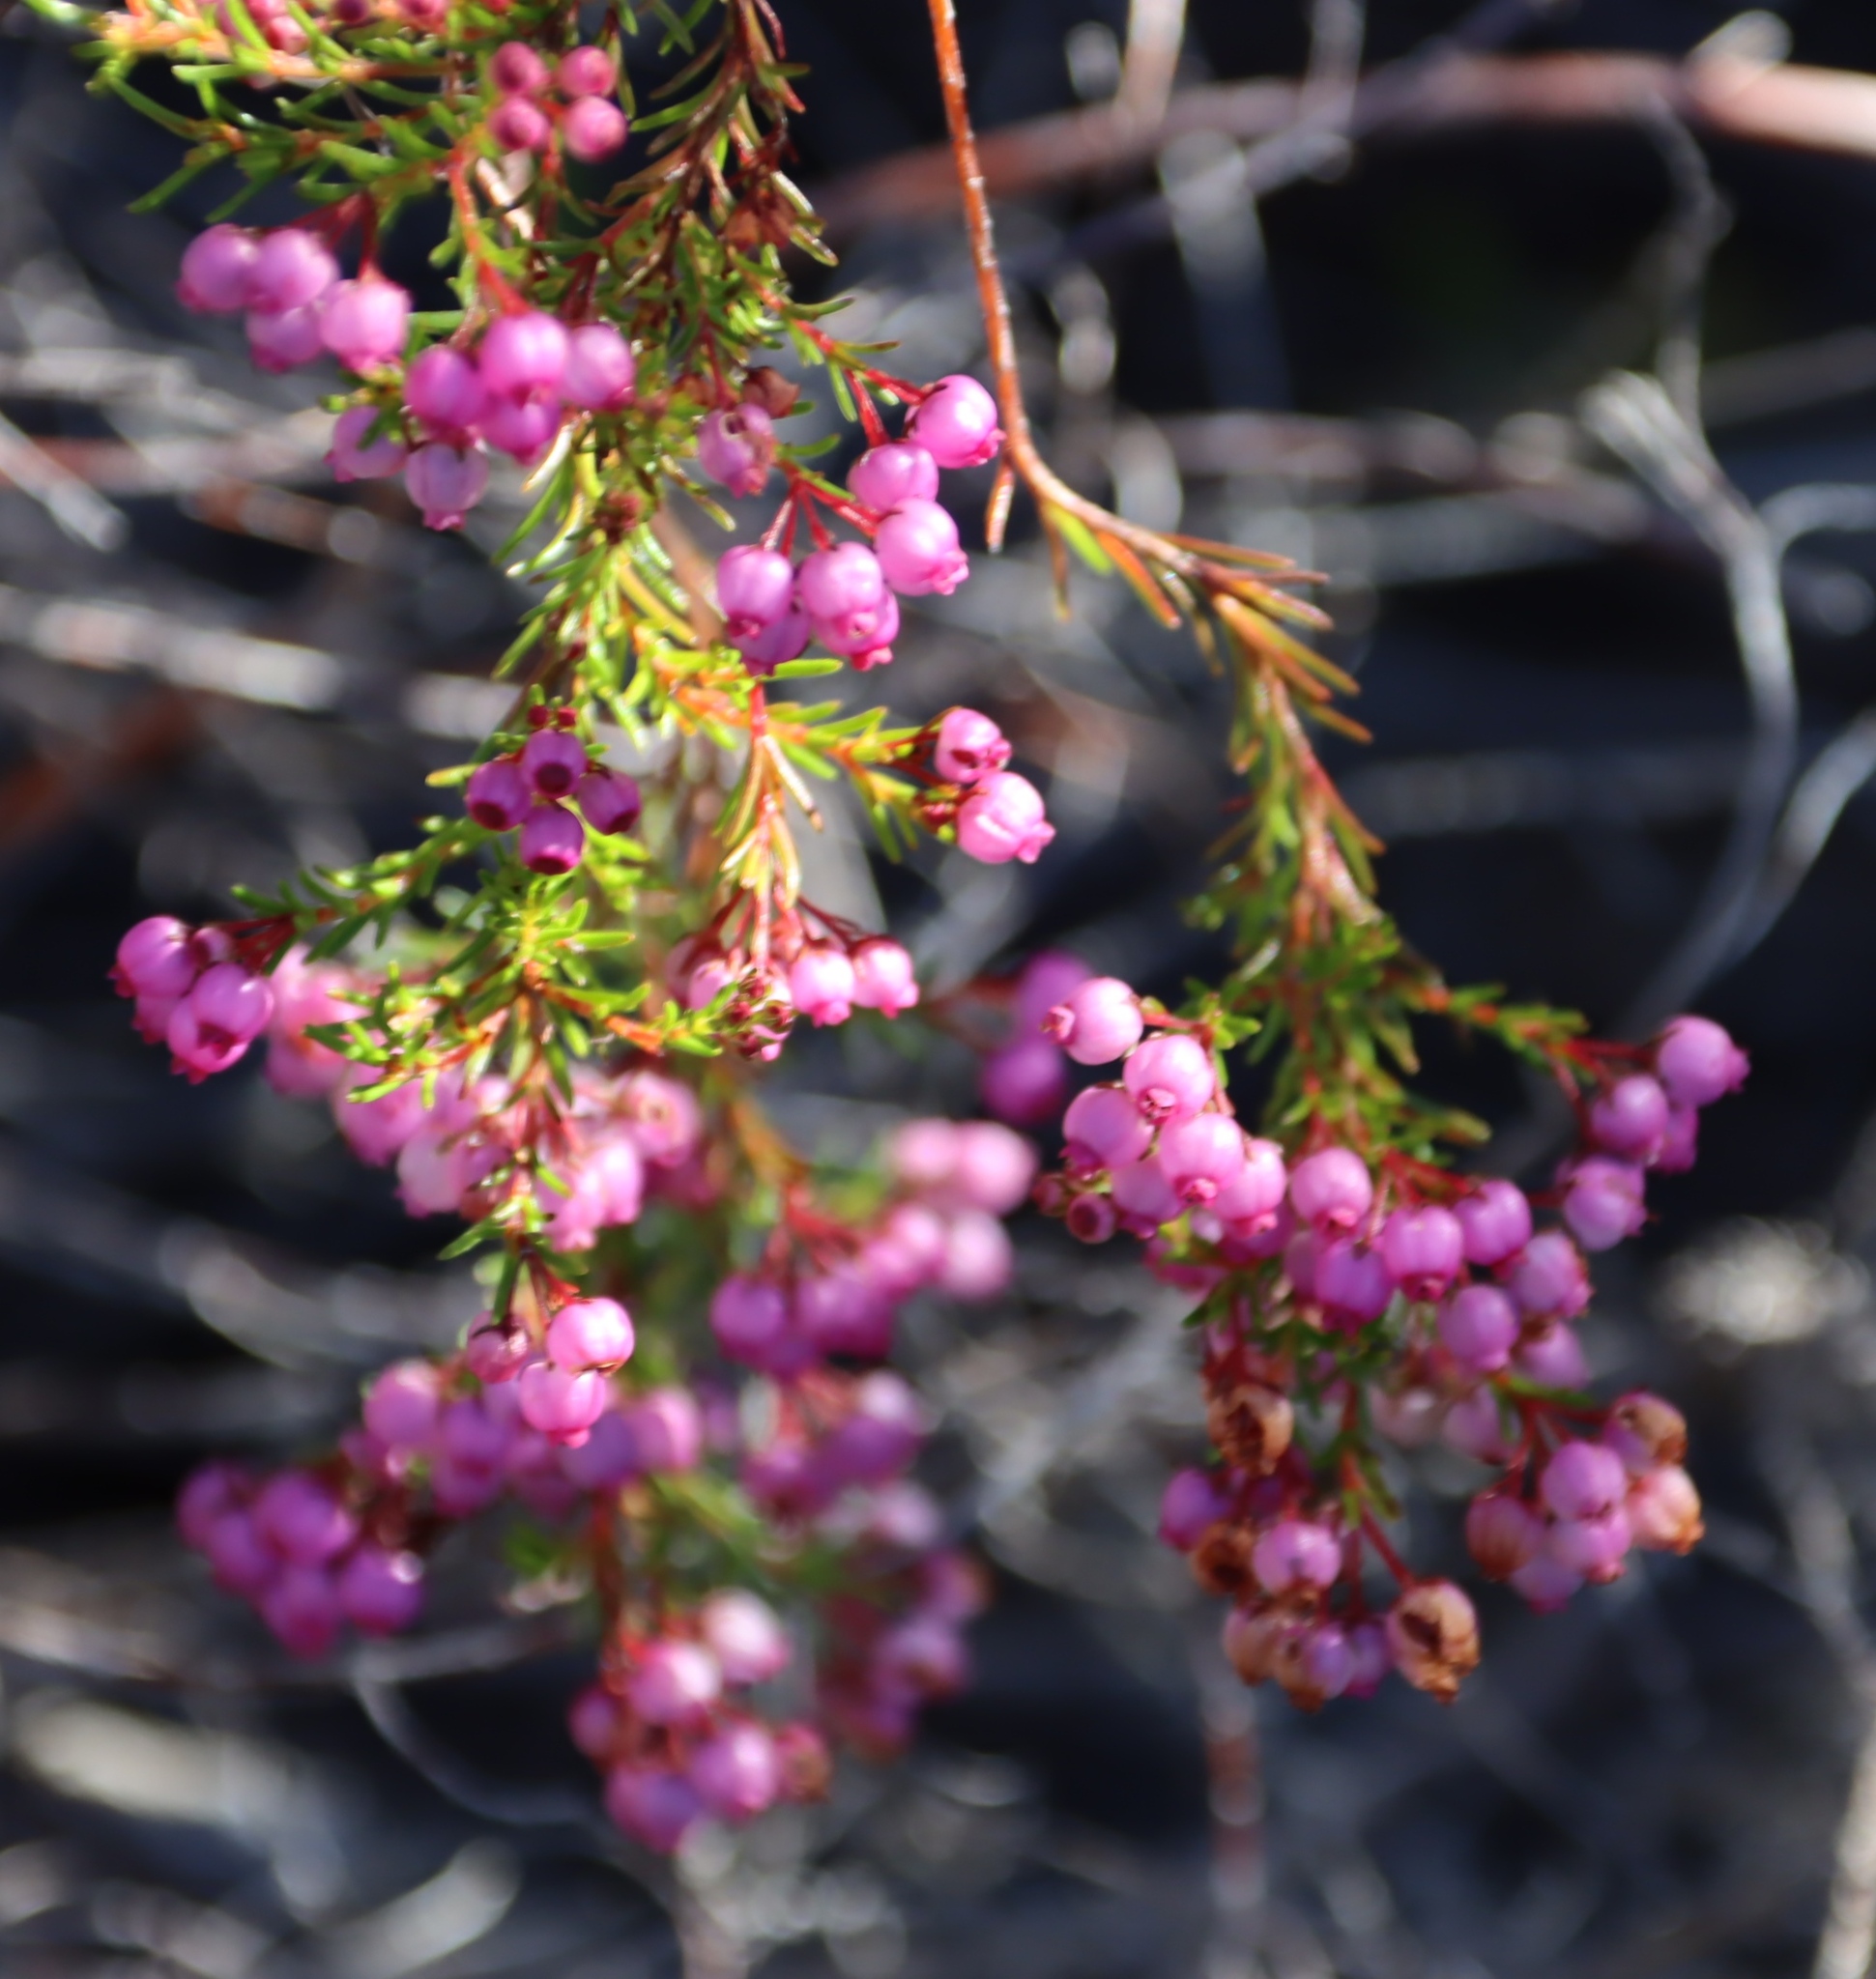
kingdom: Plantae
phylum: Tracheophyta
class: Magnoliopsida
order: Ericales
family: Ericaceae
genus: Erica
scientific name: Erica multumbellifera
